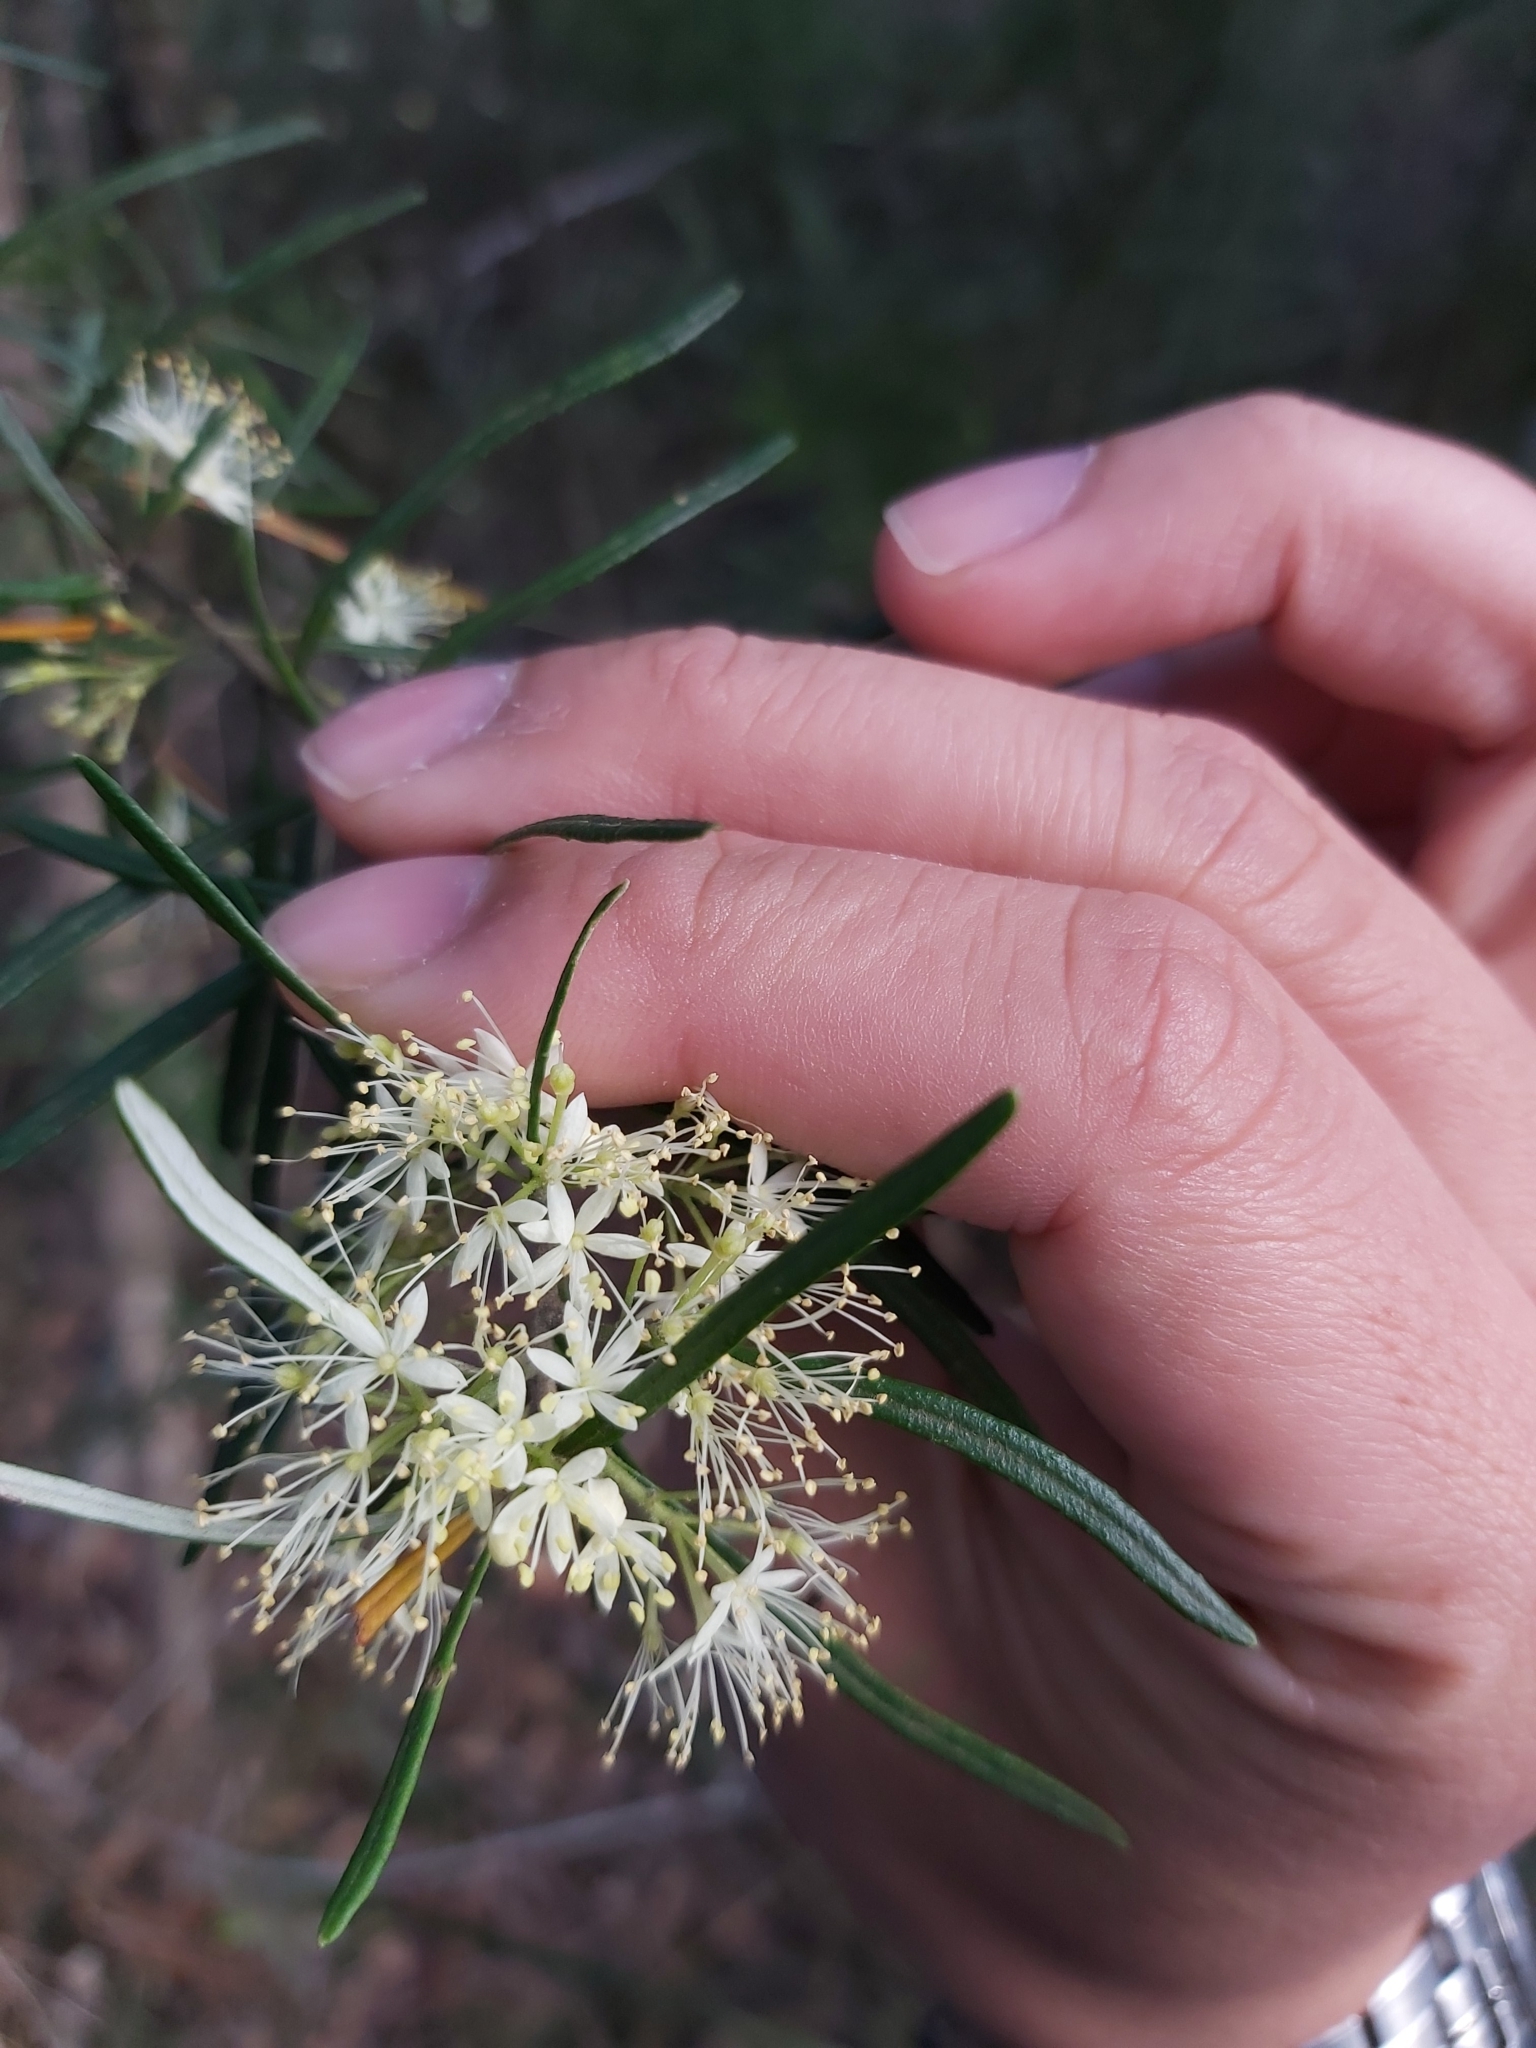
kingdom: Plantae
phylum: Tracheophyta
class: Magnoliopsida
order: Sapindales
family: Rutaceae
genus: Leionema
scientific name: Leionema dentatum
